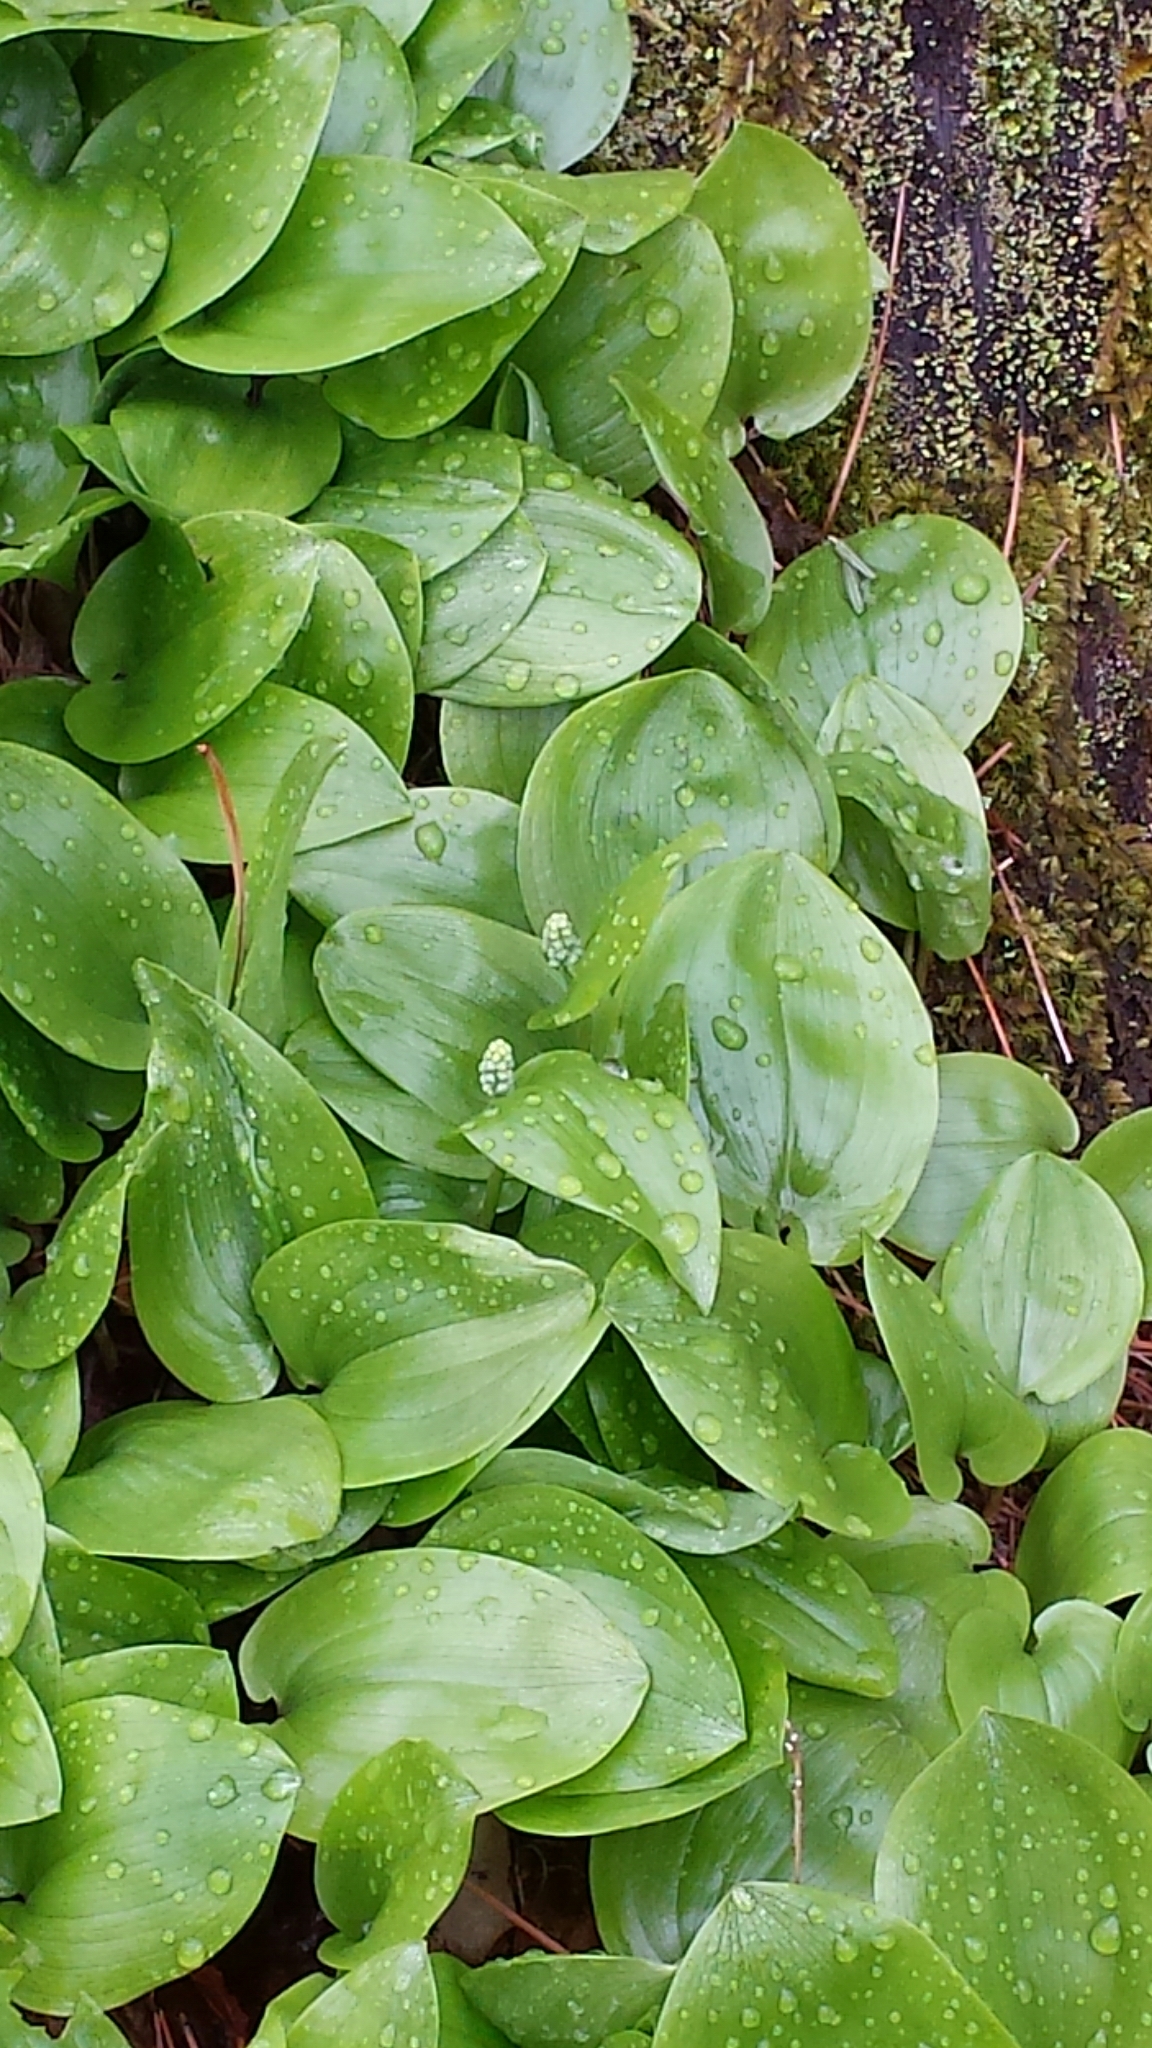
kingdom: Plantae
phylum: Tracheophyta
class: Liliopsida
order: Asparagales
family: Asparagaceae
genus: Maianthemum
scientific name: Maianthemum canadense
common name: False lily-of-the-valley
